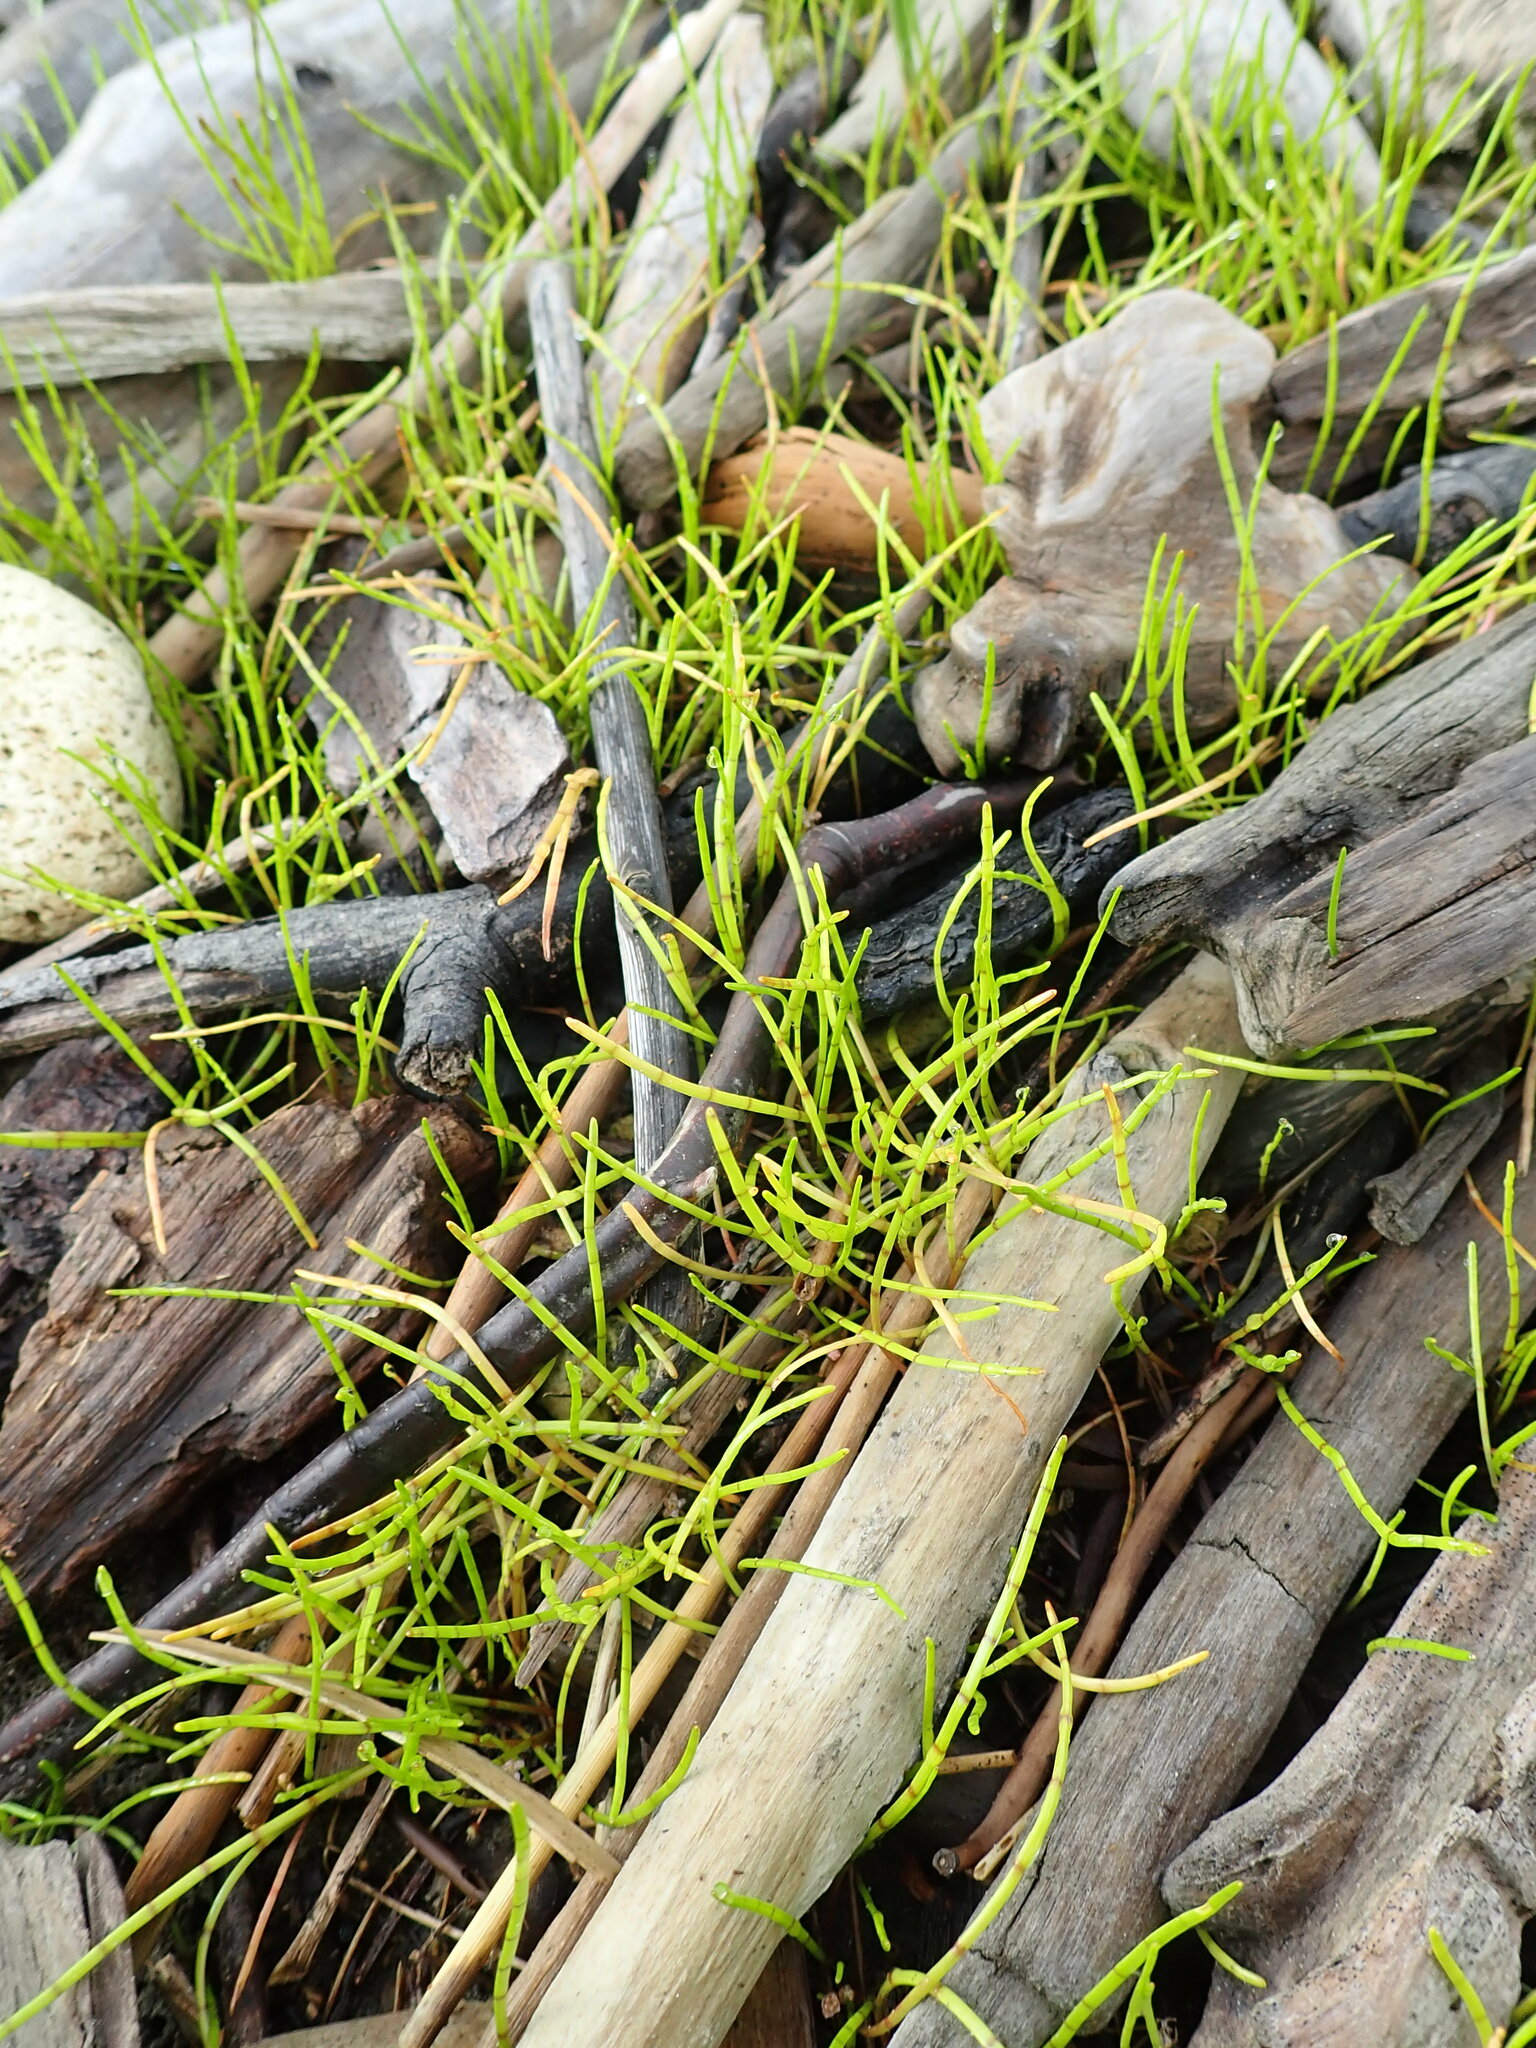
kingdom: Plantae
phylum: Tracheophyta
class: Magnoliopsida
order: Apiales
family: Apiaceae
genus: Lilaeopsis
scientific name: Lilaeopsis novae-zelandiae
